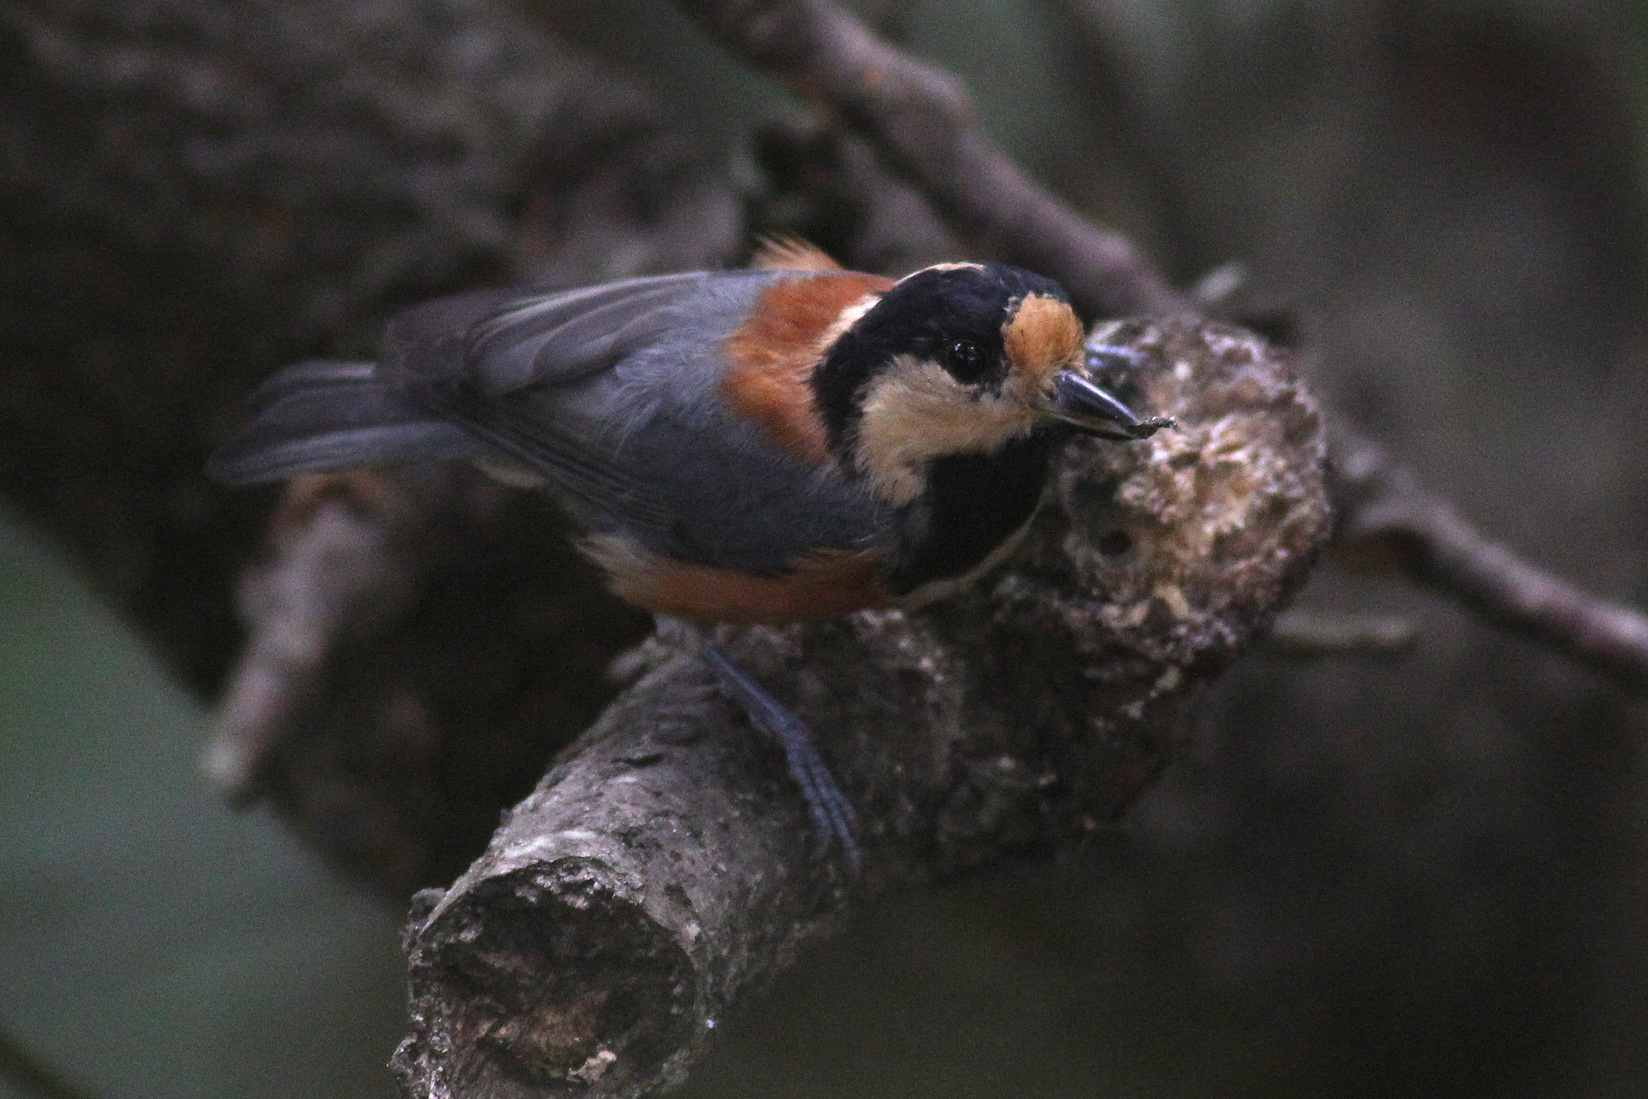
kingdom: Animalia
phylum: Chordata
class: Aves
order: Passeriformes
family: Paridae
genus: Poecile
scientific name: Poecile varius
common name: Varied tit
